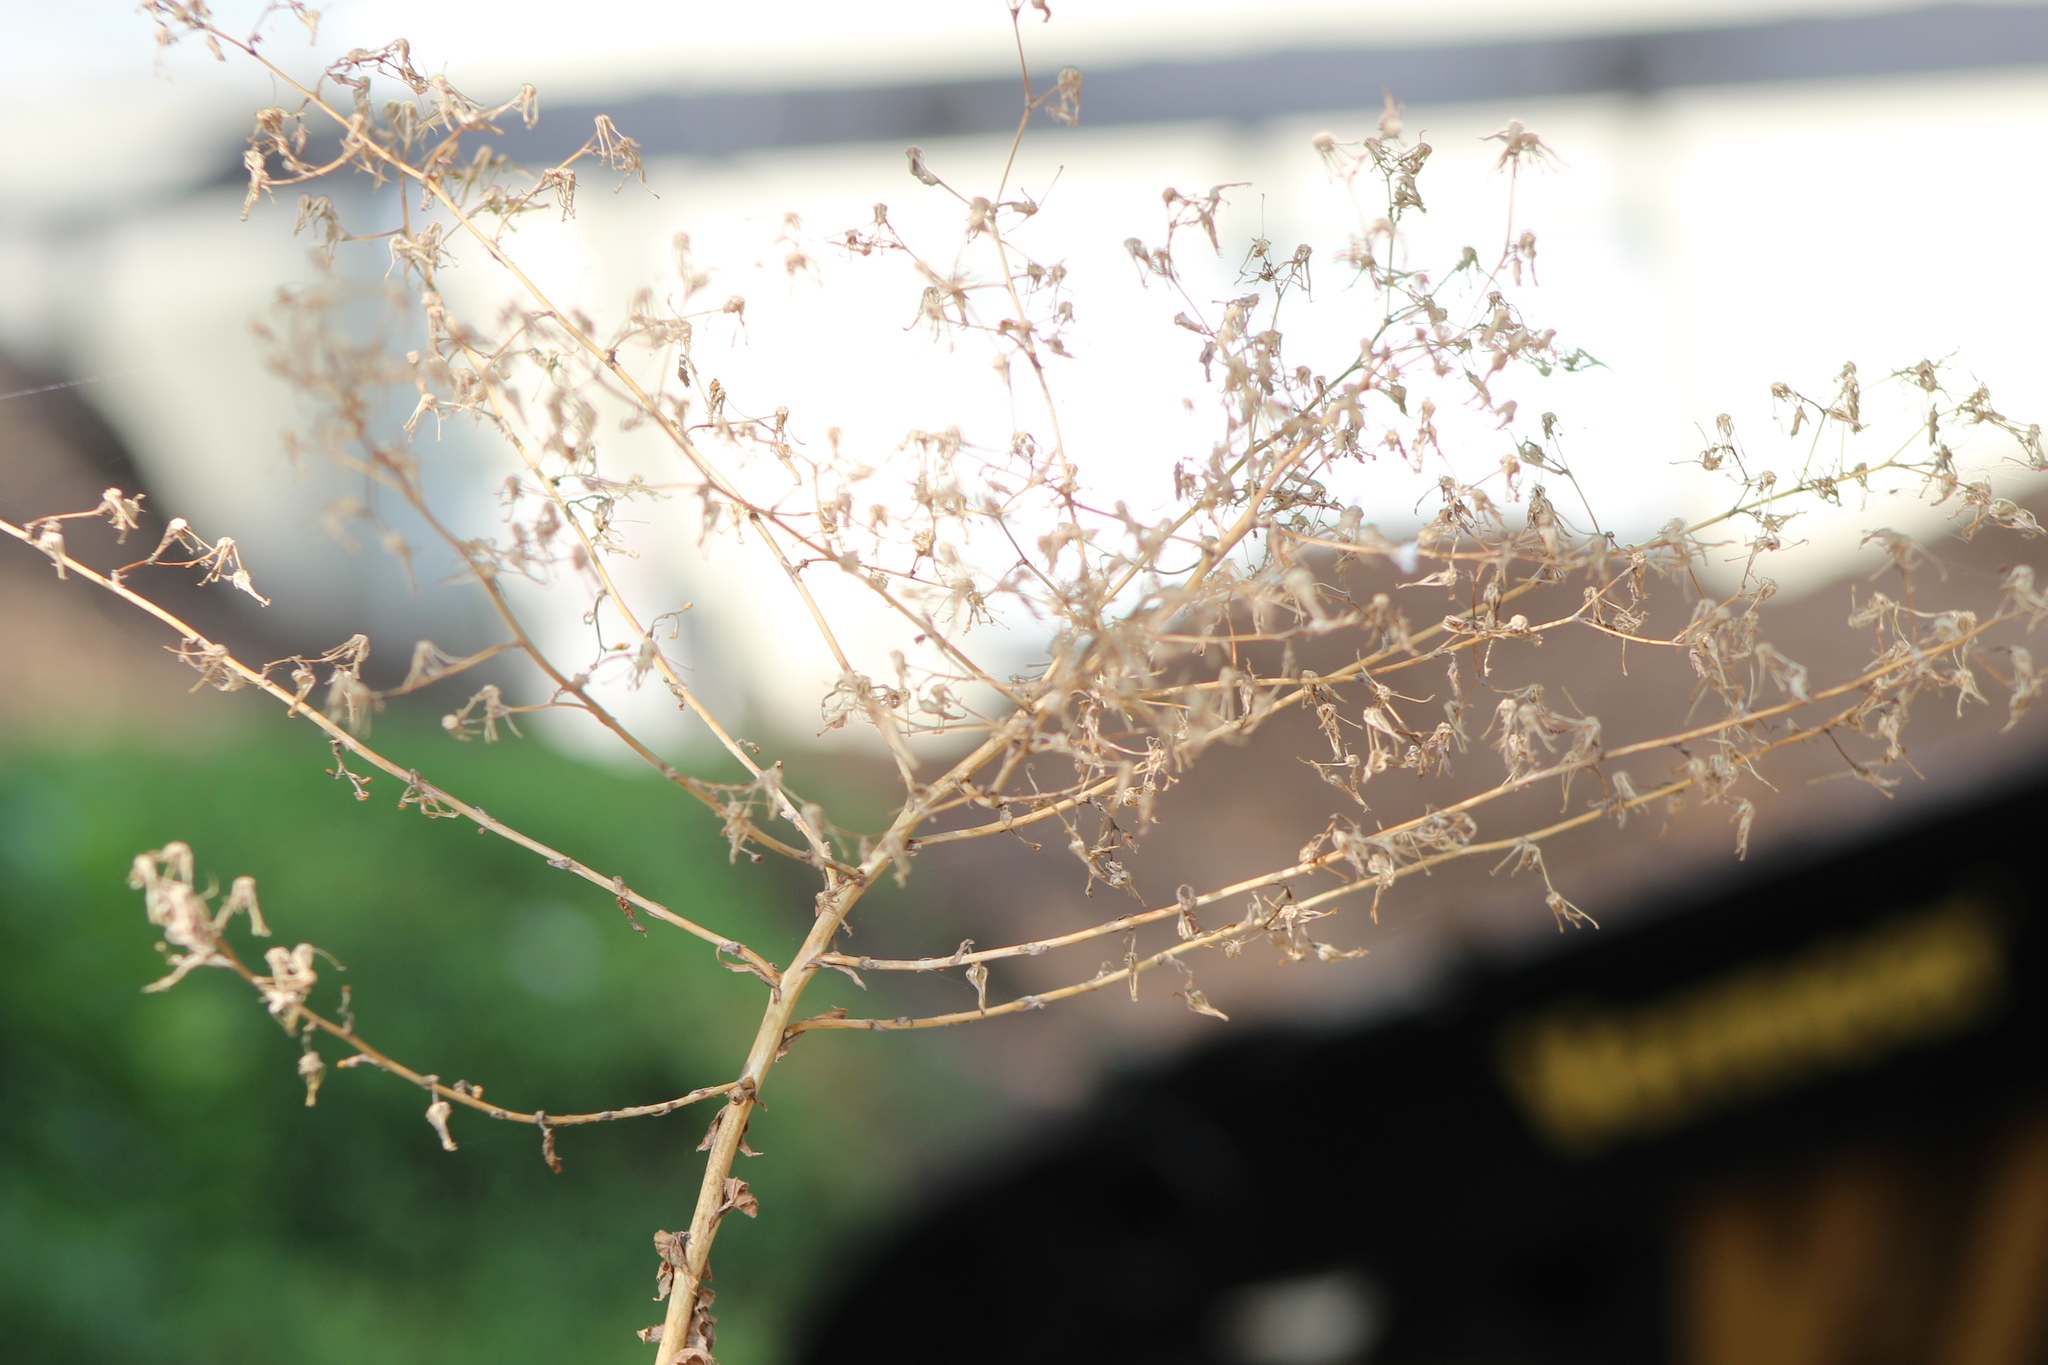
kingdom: Plantae
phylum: Tracheophyta
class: Magnoliopsida
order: Asterales
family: Asteraceae
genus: Lactuca
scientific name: Lactuca
